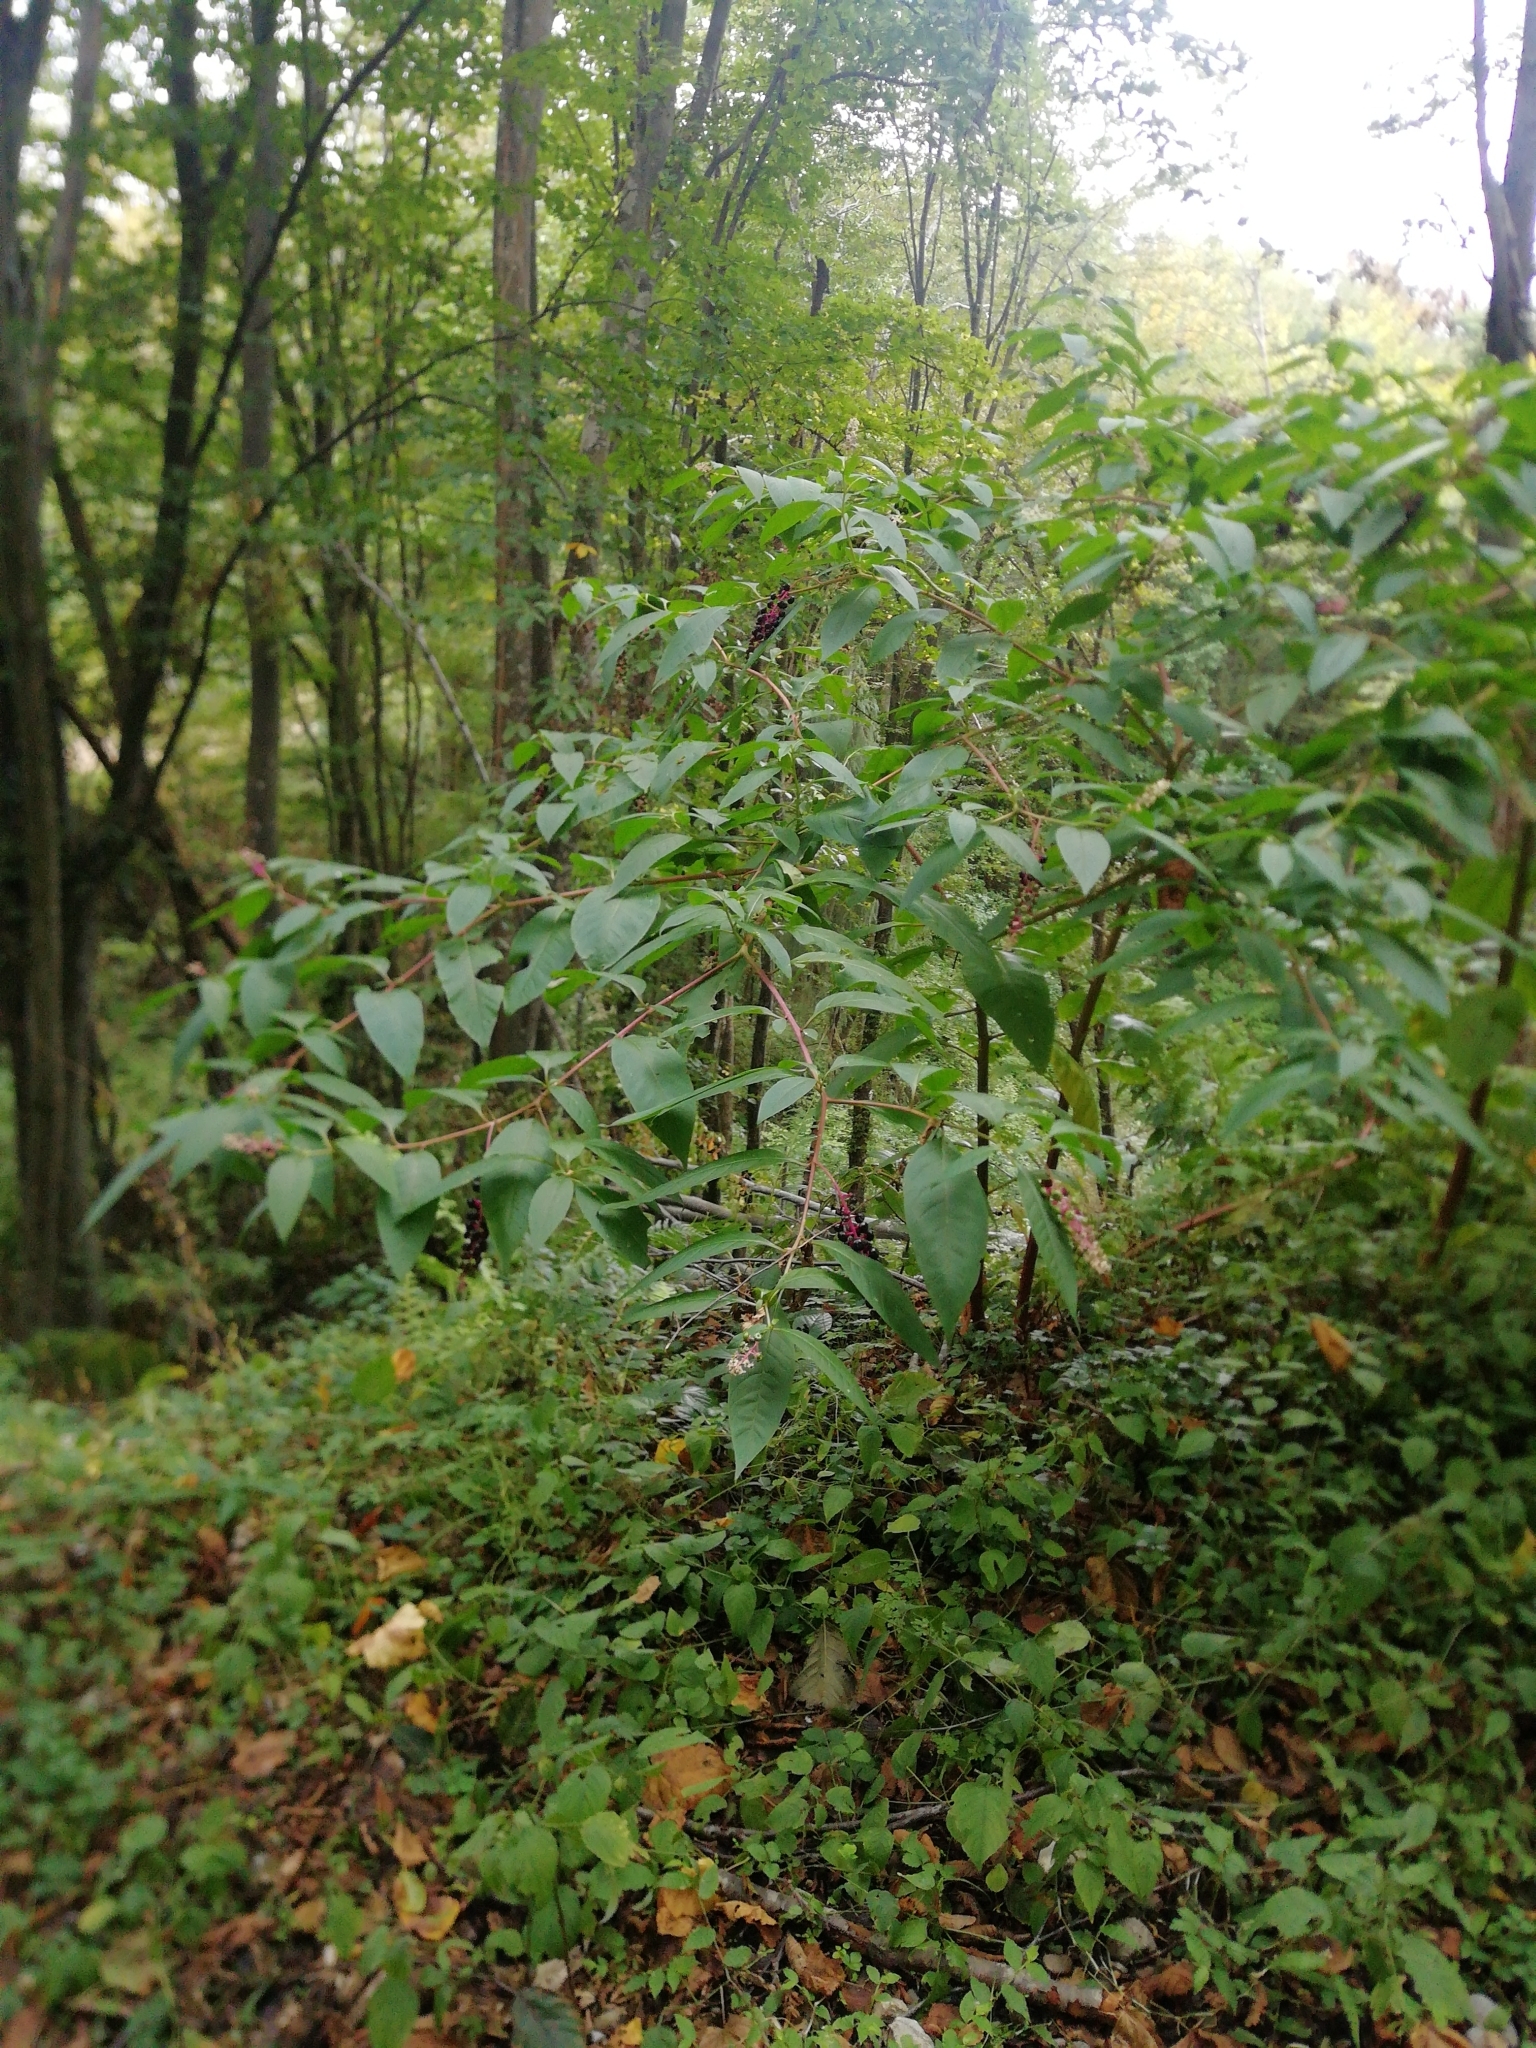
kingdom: Plantae
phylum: Tracheophyta
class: Magnoliopsida
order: Caryophyllales
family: Phytolaccaceae
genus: Phytolacca
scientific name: Phytolacca americana
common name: American pokeweed
